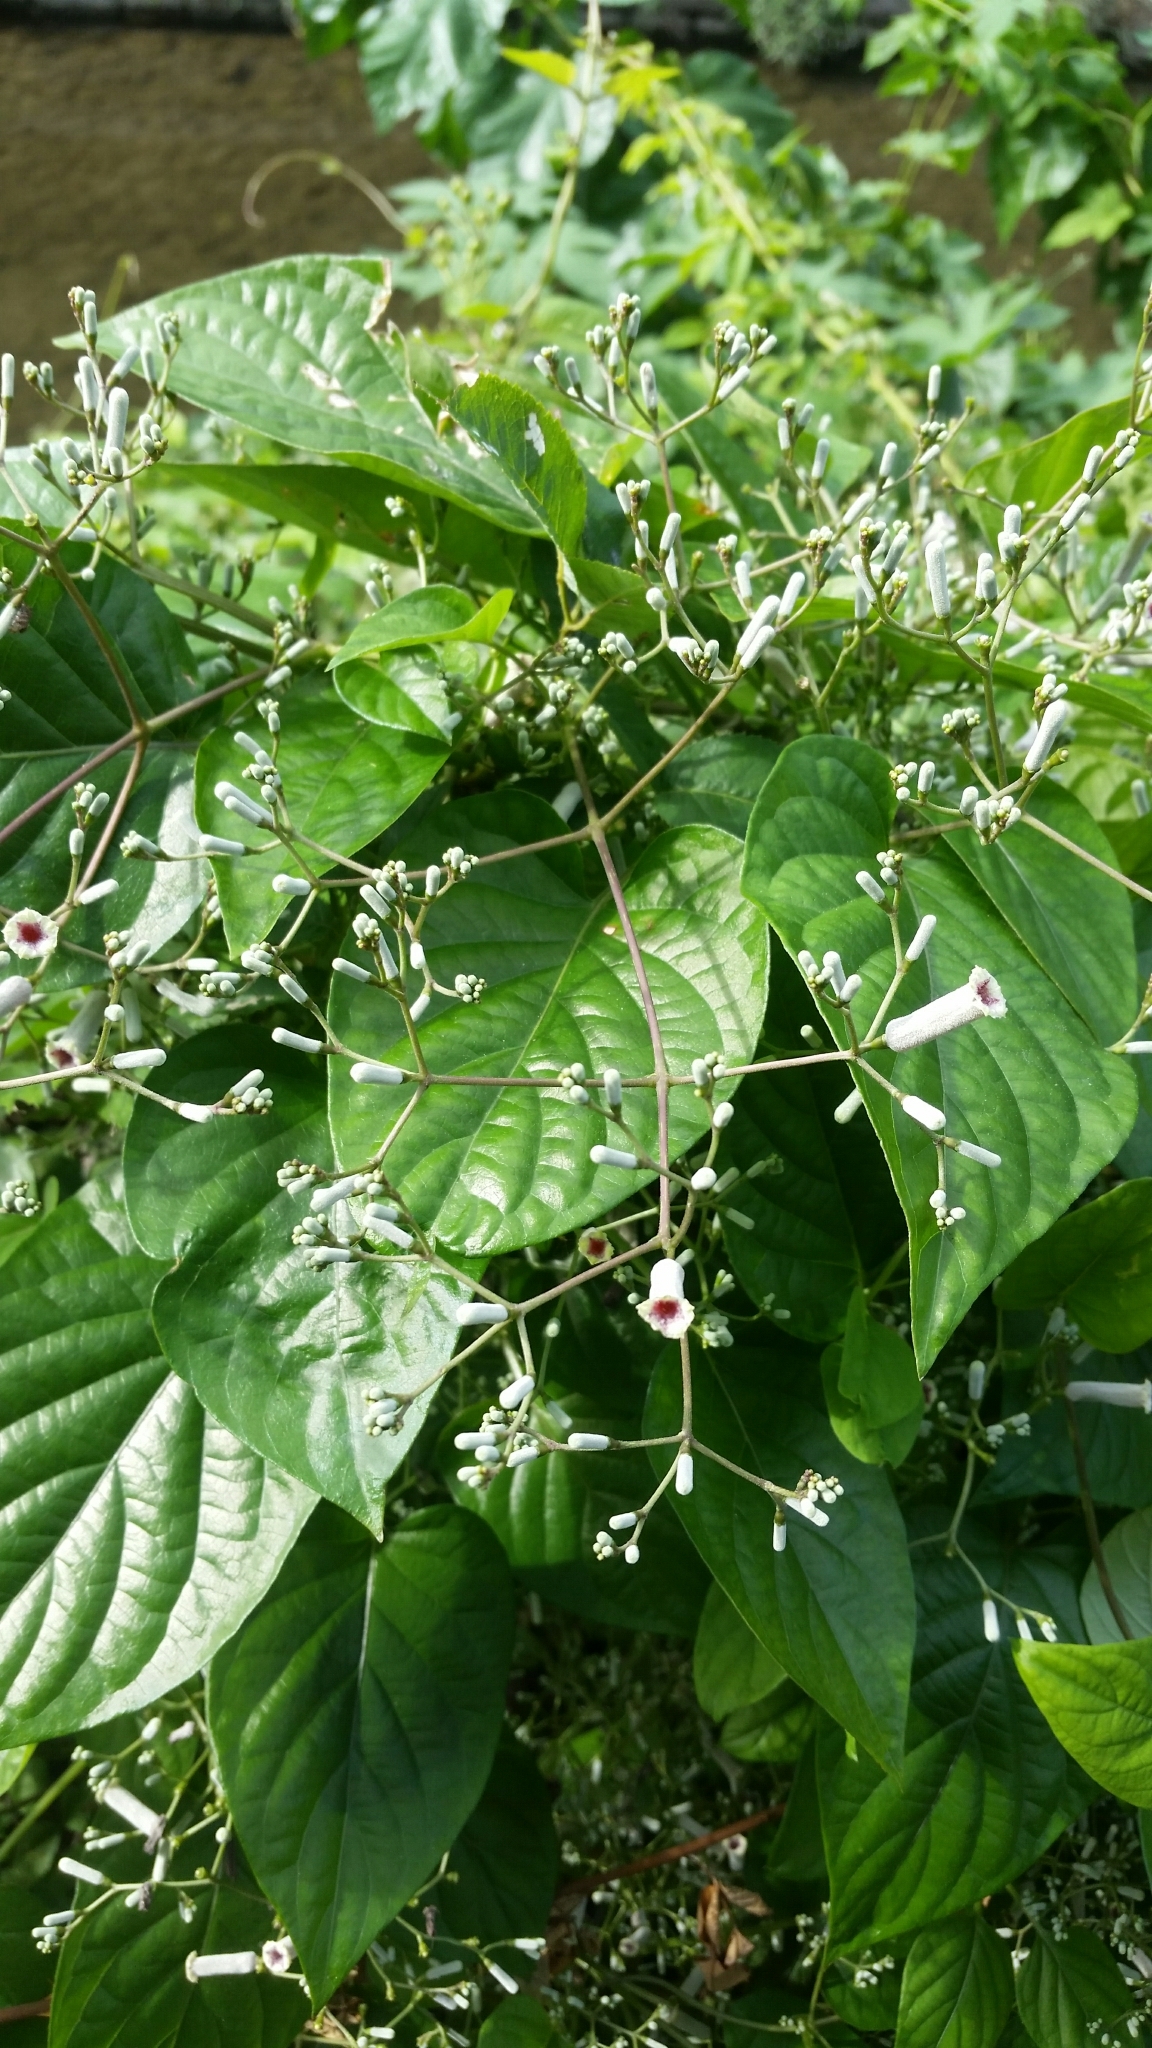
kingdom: Plantae
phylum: Tracheophyta
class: Magnoliopsida
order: Gentianales
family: Rubiaceae
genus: Paederia
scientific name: Paederia foetida
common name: Stinkvine
